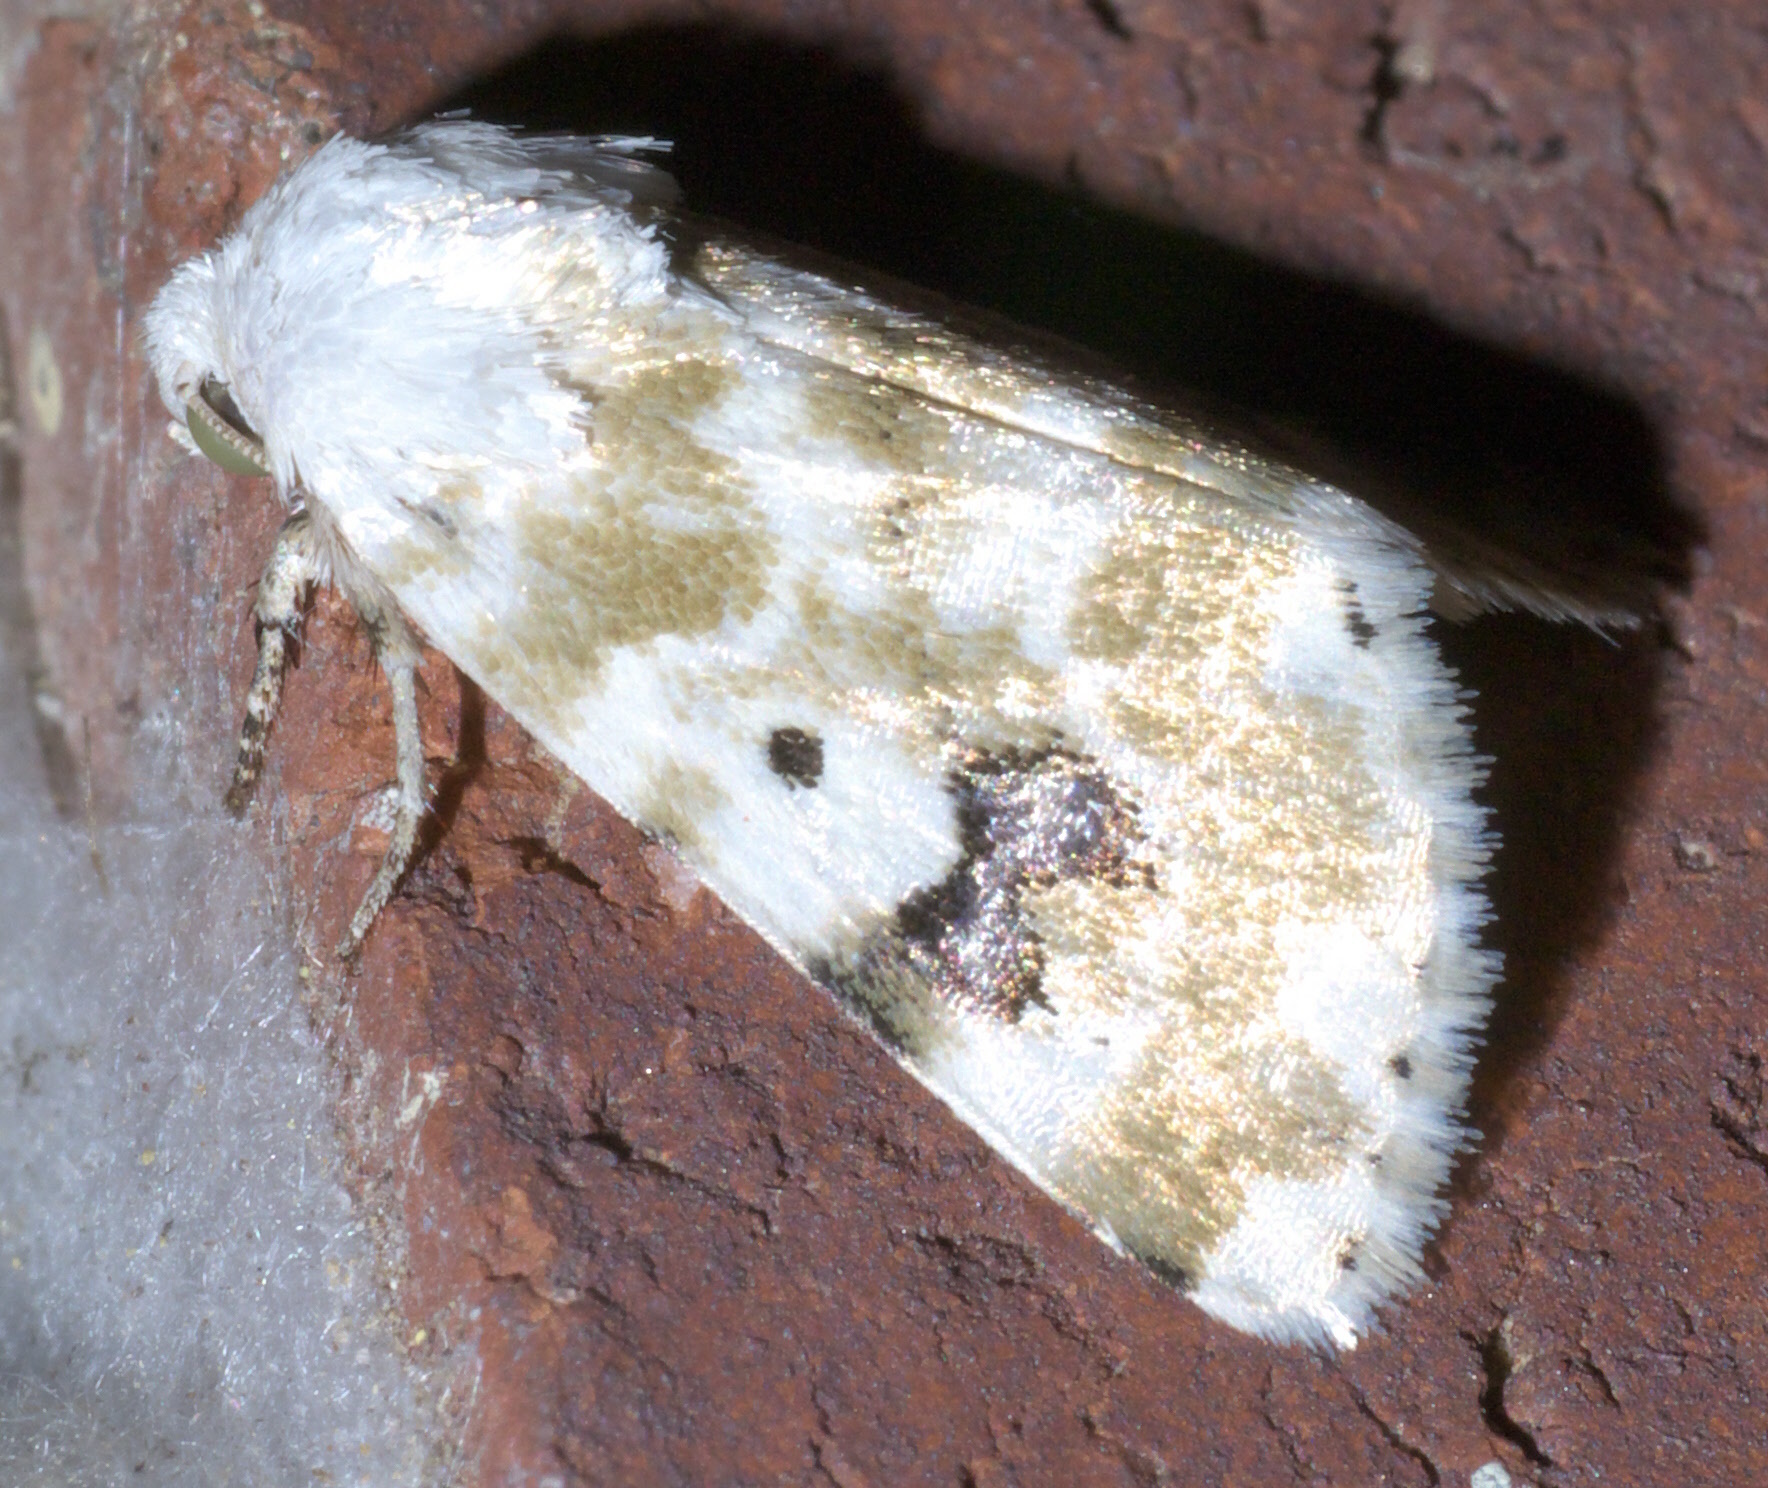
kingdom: Animalia
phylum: Arthropoda
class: Insecta
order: Lepidoptera
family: Noctuidae
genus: Schinia
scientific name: Schinia nundina
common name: Goldenrod flower moth
